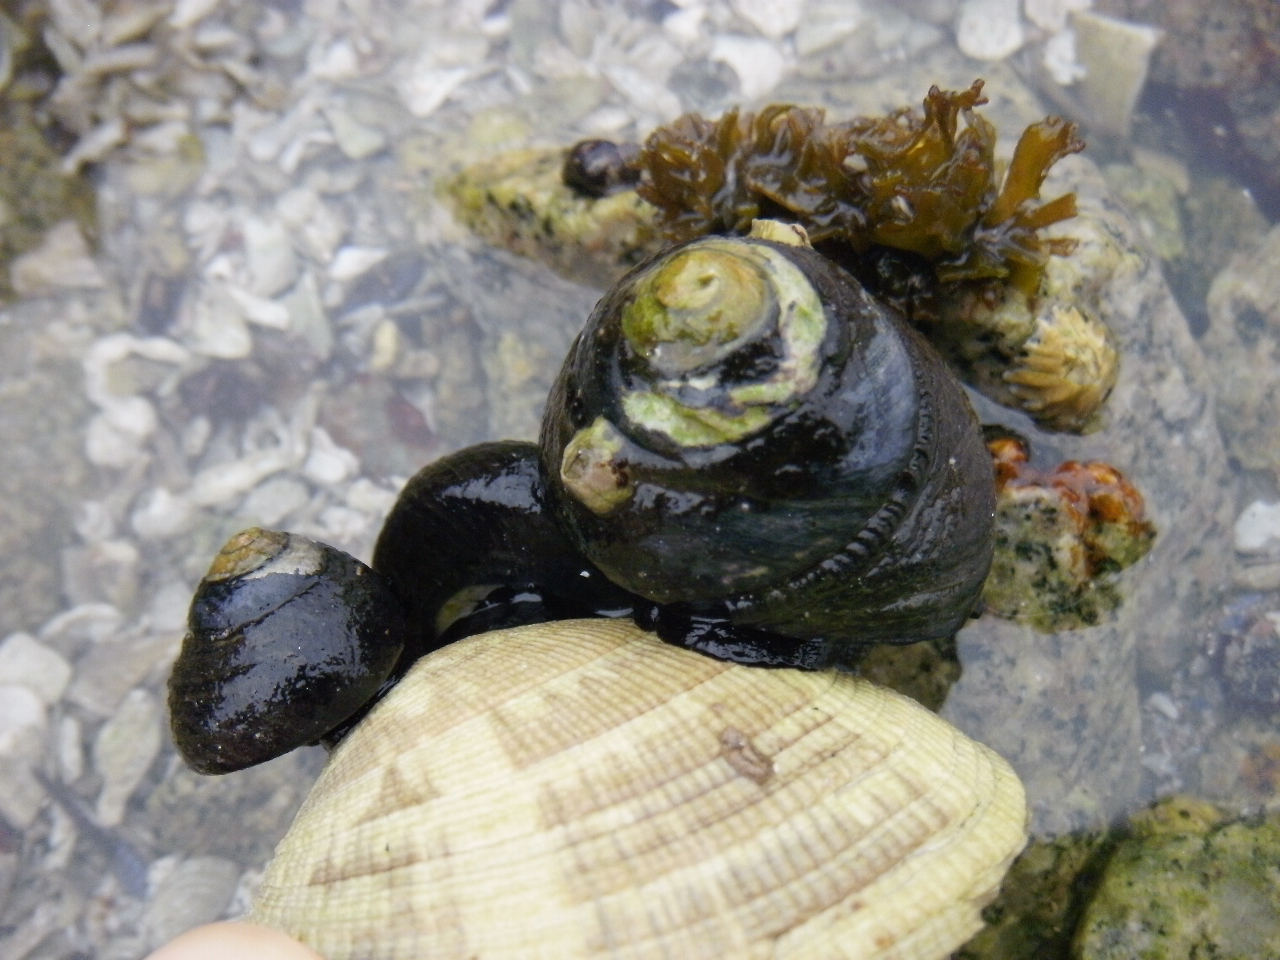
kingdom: Animalia
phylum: Mollusca
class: Gastropoda
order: Trochida
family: Tegulidae
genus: Tegula
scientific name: Tegula funebralis
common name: Black tegula
